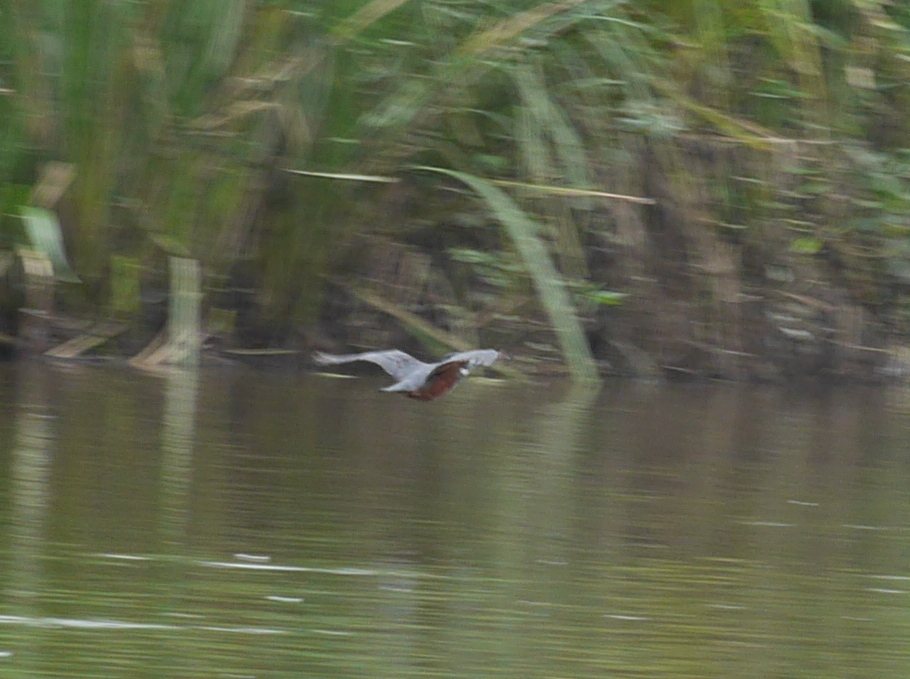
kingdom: Animalia
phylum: Chordata
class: Aves
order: Coraciiformes
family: Alcedinidae
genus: Megaceryle
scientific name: Megaceryle maxima
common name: Giant kingfisher
